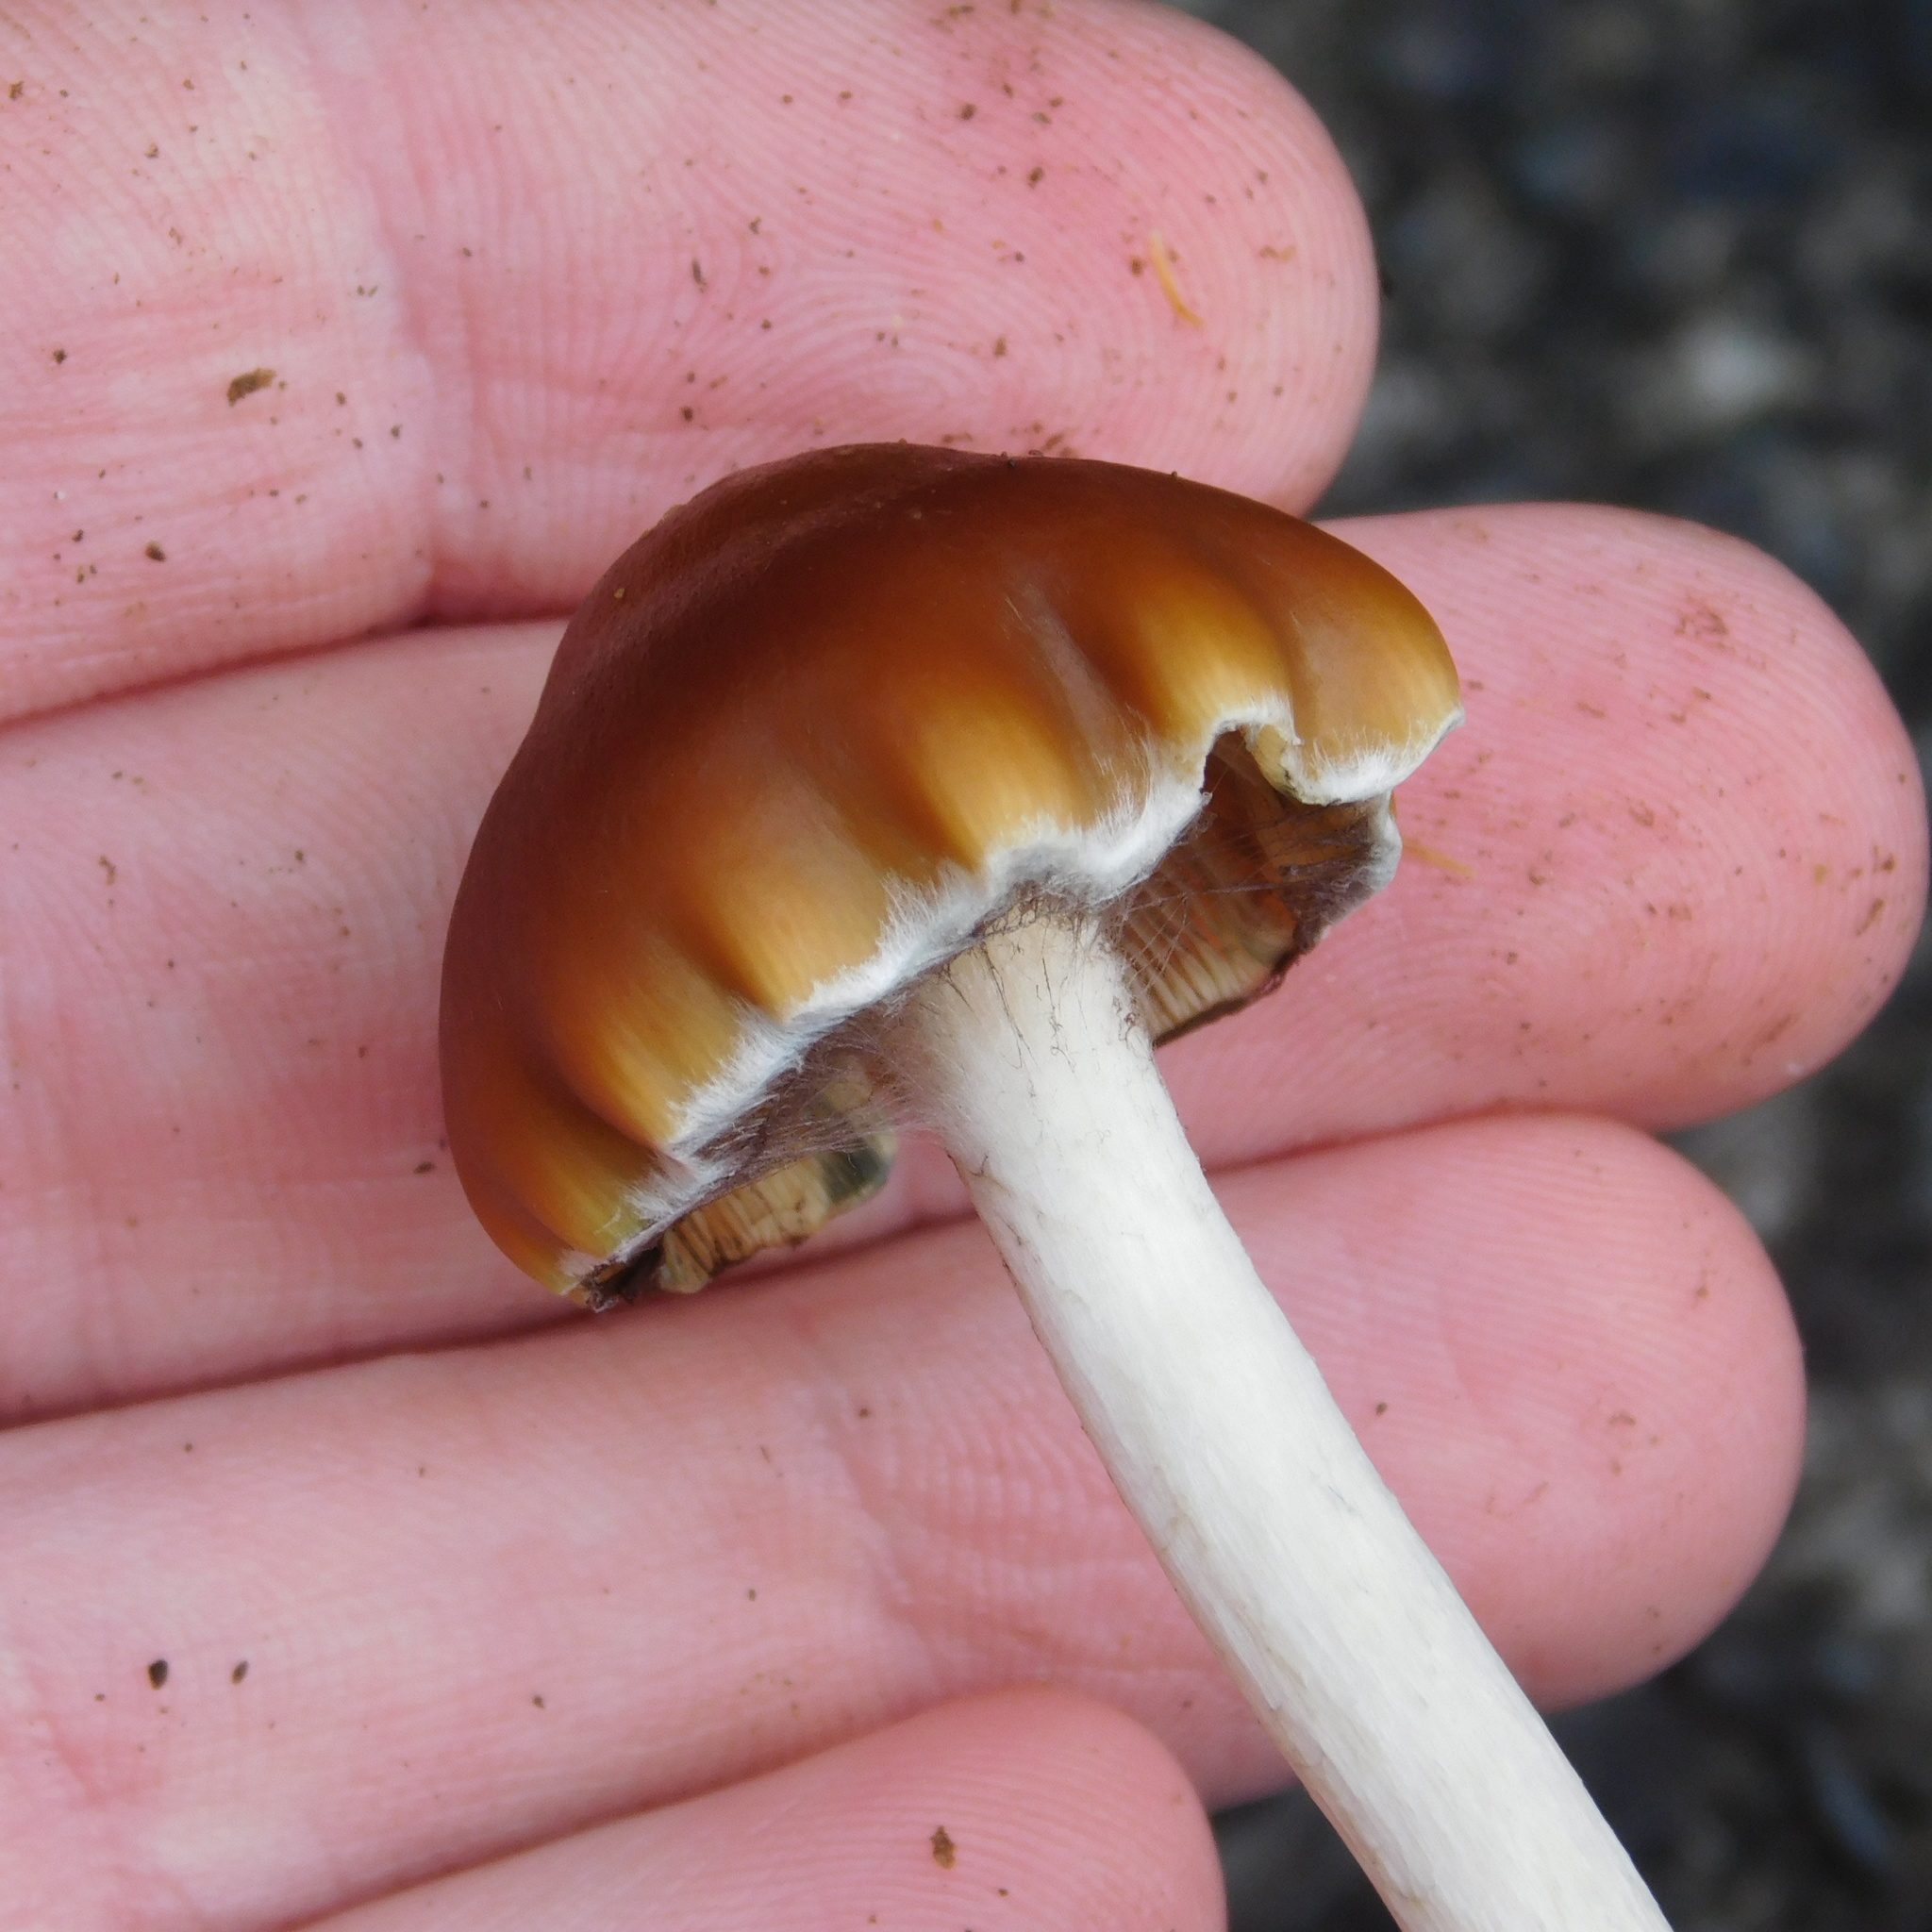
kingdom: Fungi
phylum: Basidiomycota
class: Agaricomycetes
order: Agaricales
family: Hymenogastraceae
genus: Psilocybe
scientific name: Psilocybe subaeruginosa
